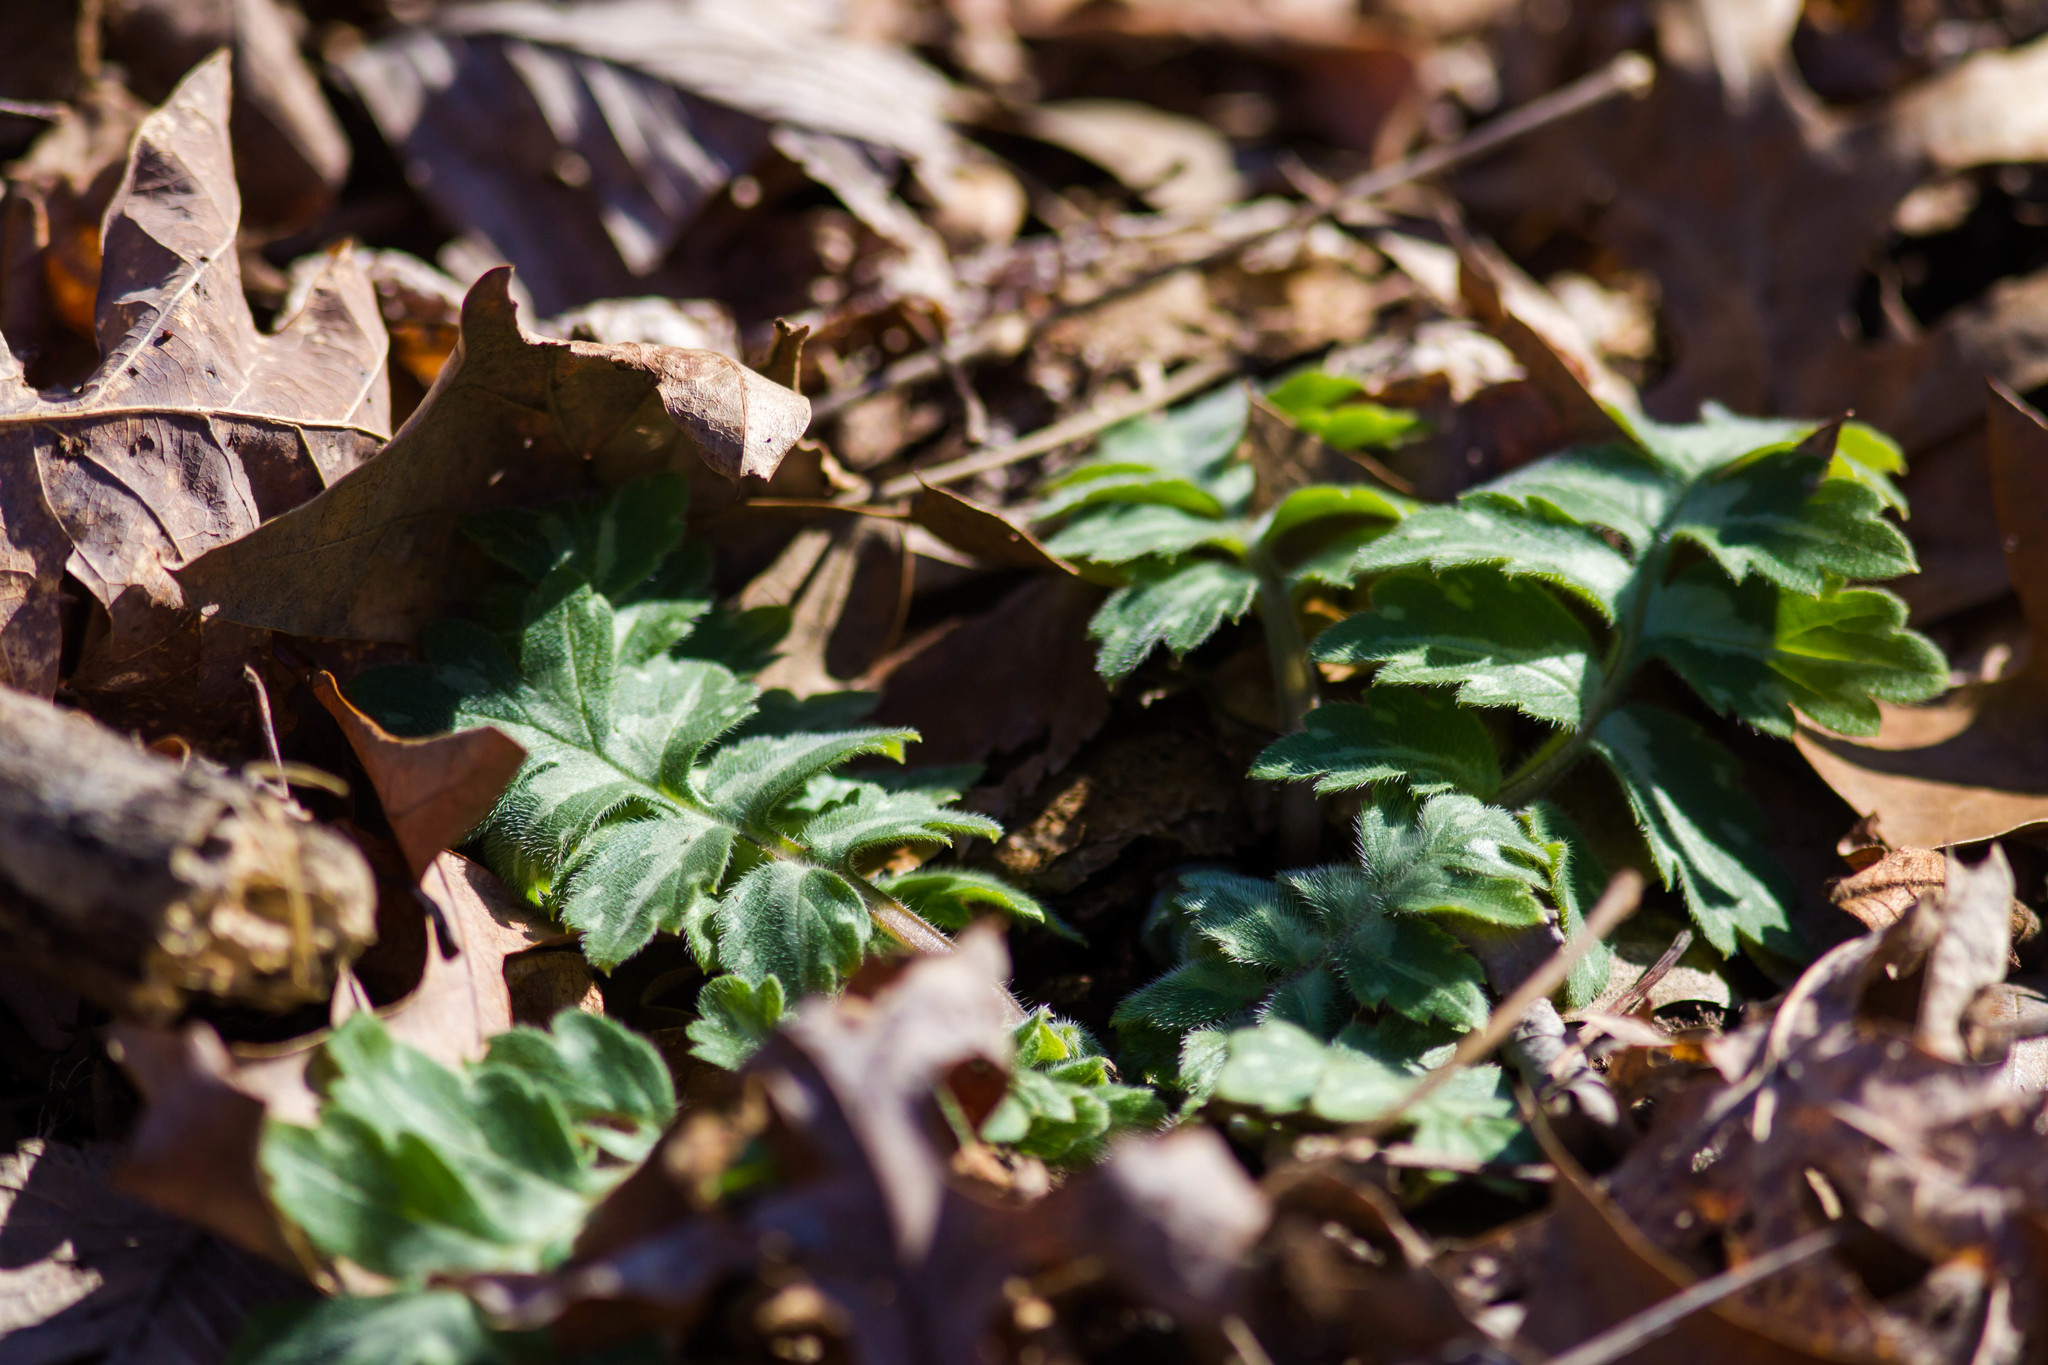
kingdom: Plantae
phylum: Tracheophyta
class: Magnoliopsida
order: Boraginales
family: Hydrophyllaceae
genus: Hydrophyllum
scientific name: Hydrophyllum macrophyllum
